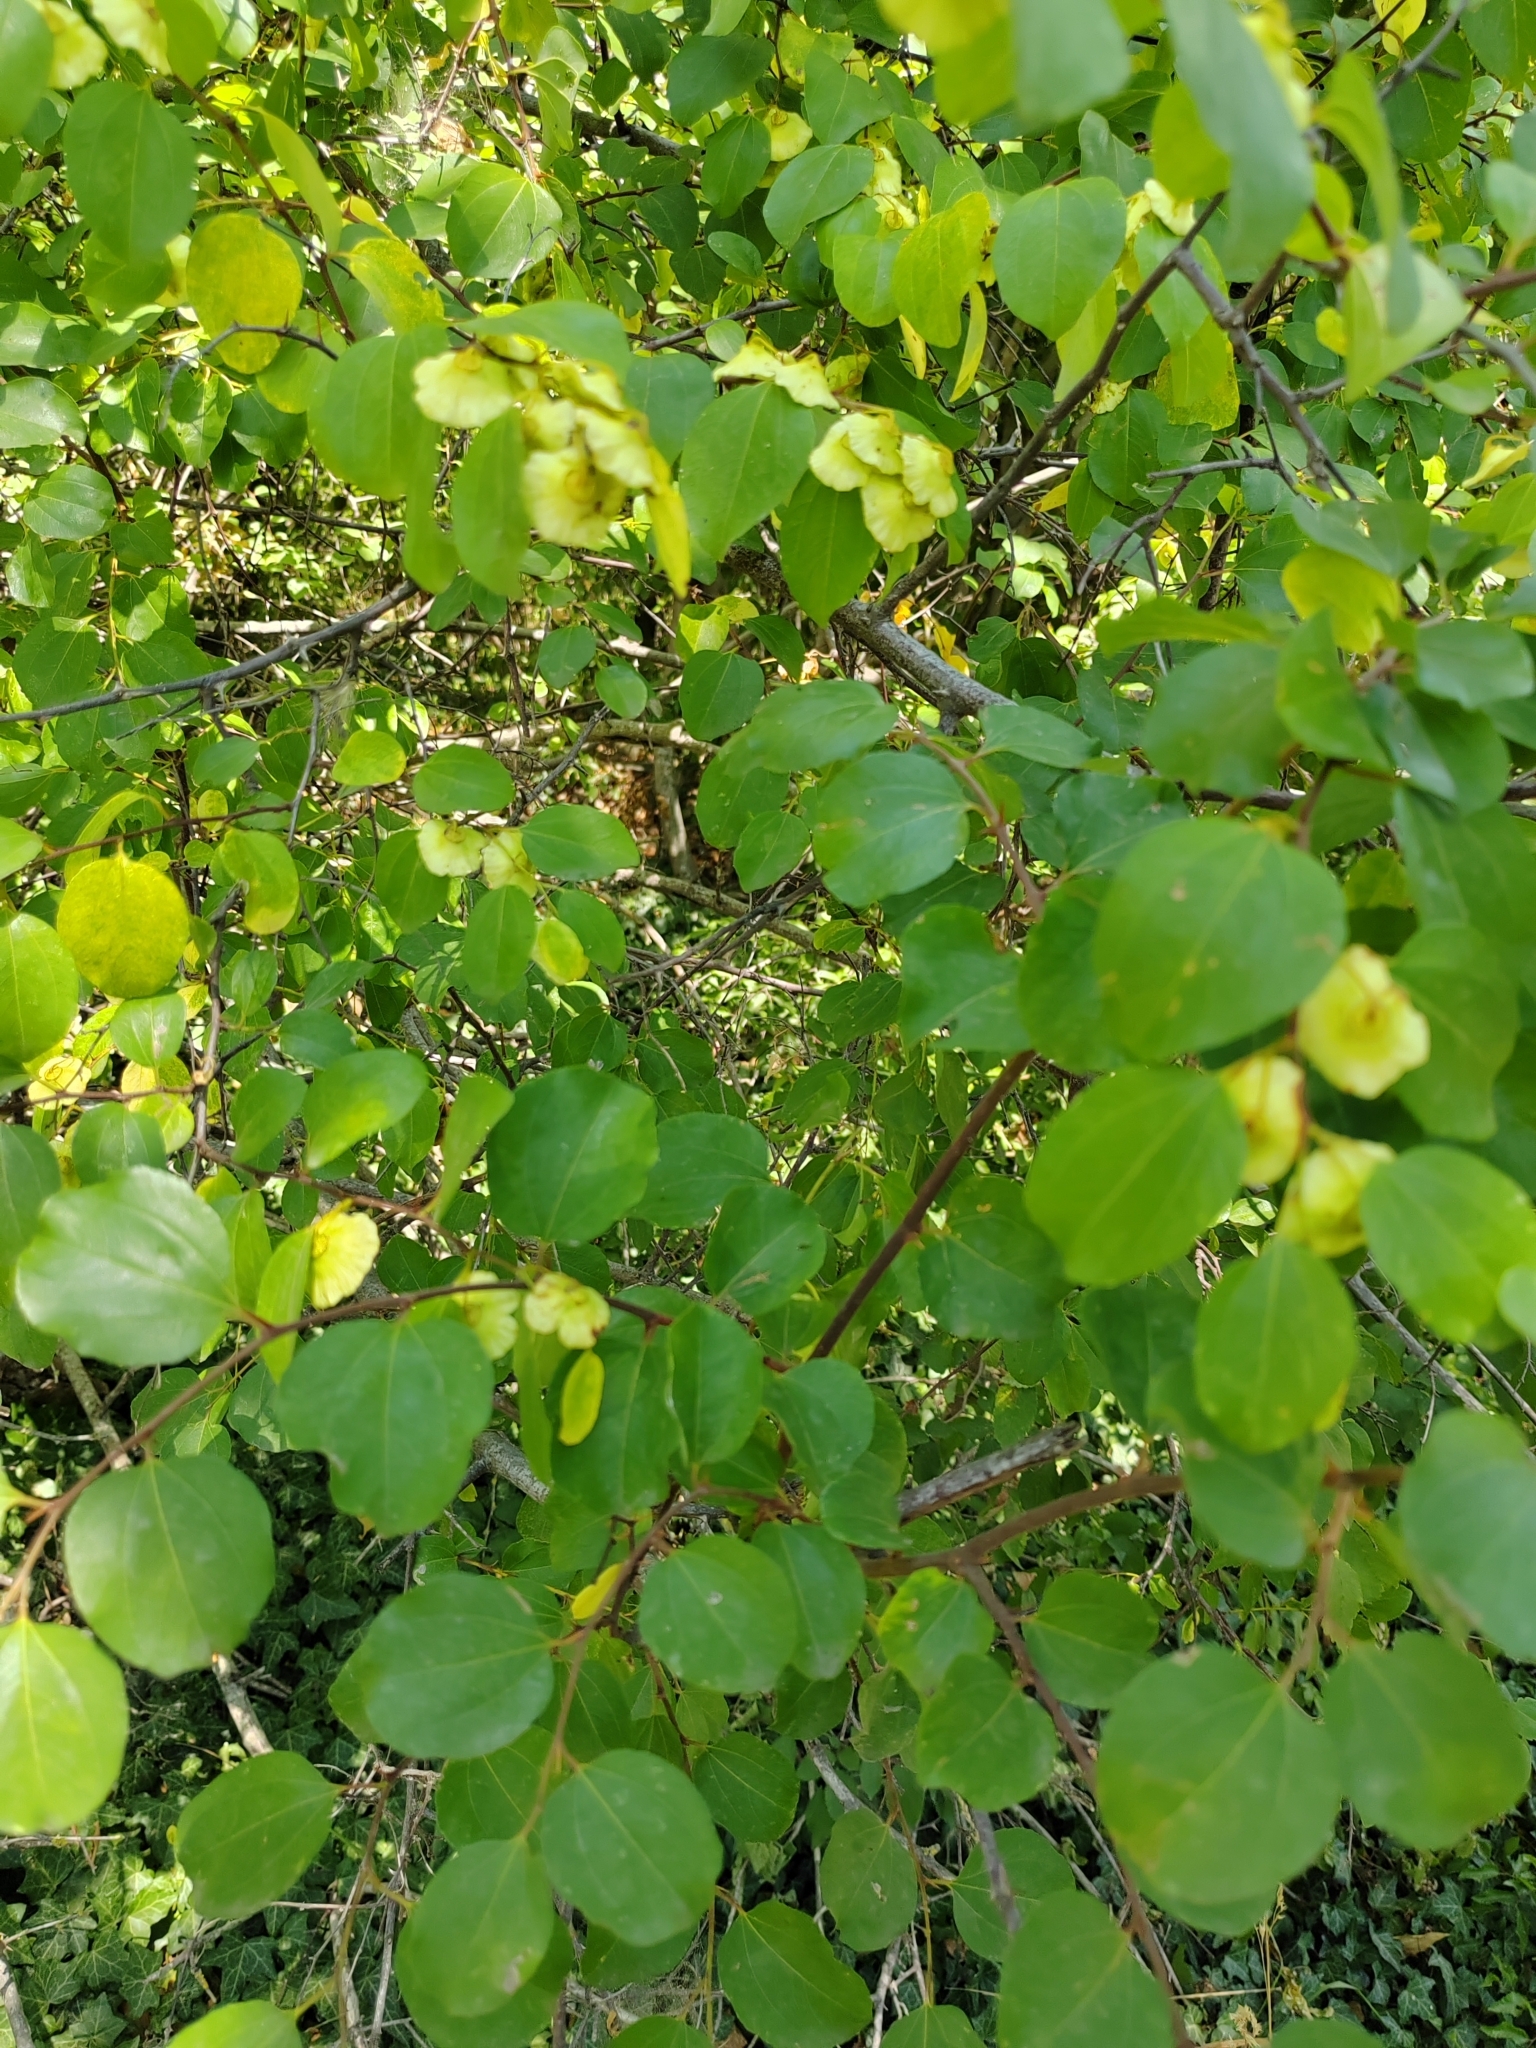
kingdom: Plantae
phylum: Tracheophyta
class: Magnoliopsida
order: Rosales
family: Rhamnaceae
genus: Paliurus
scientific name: Paliurus spina-christi
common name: Jeruselem thorn
